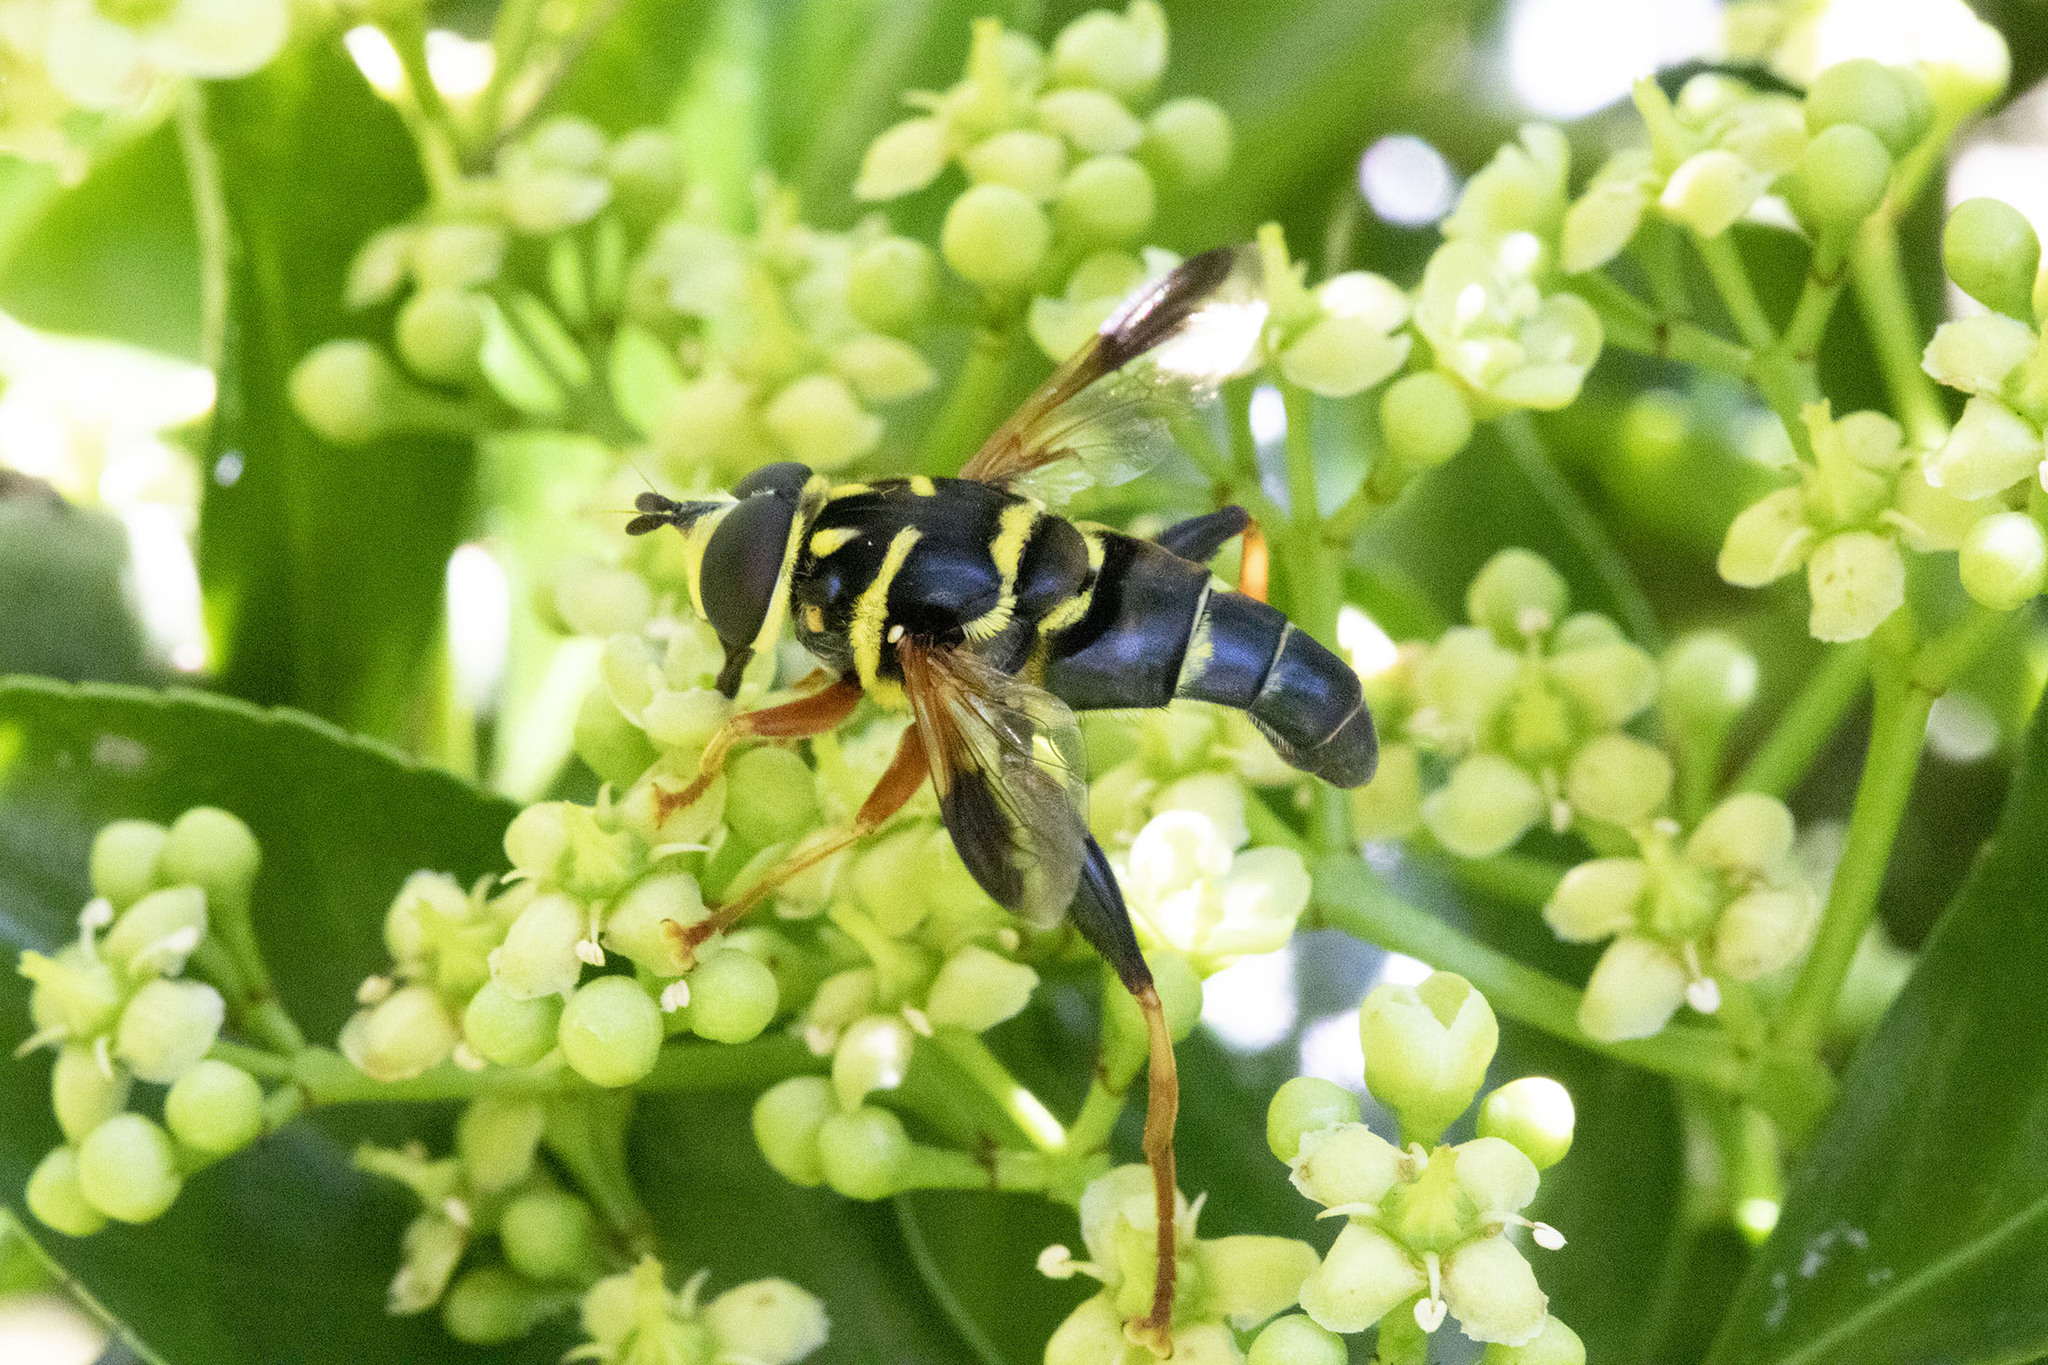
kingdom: Animalia
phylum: Arthropoda
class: Insecta
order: Diptera
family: Syrphidae
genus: Meromacrus
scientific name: Meromacrus acutus
